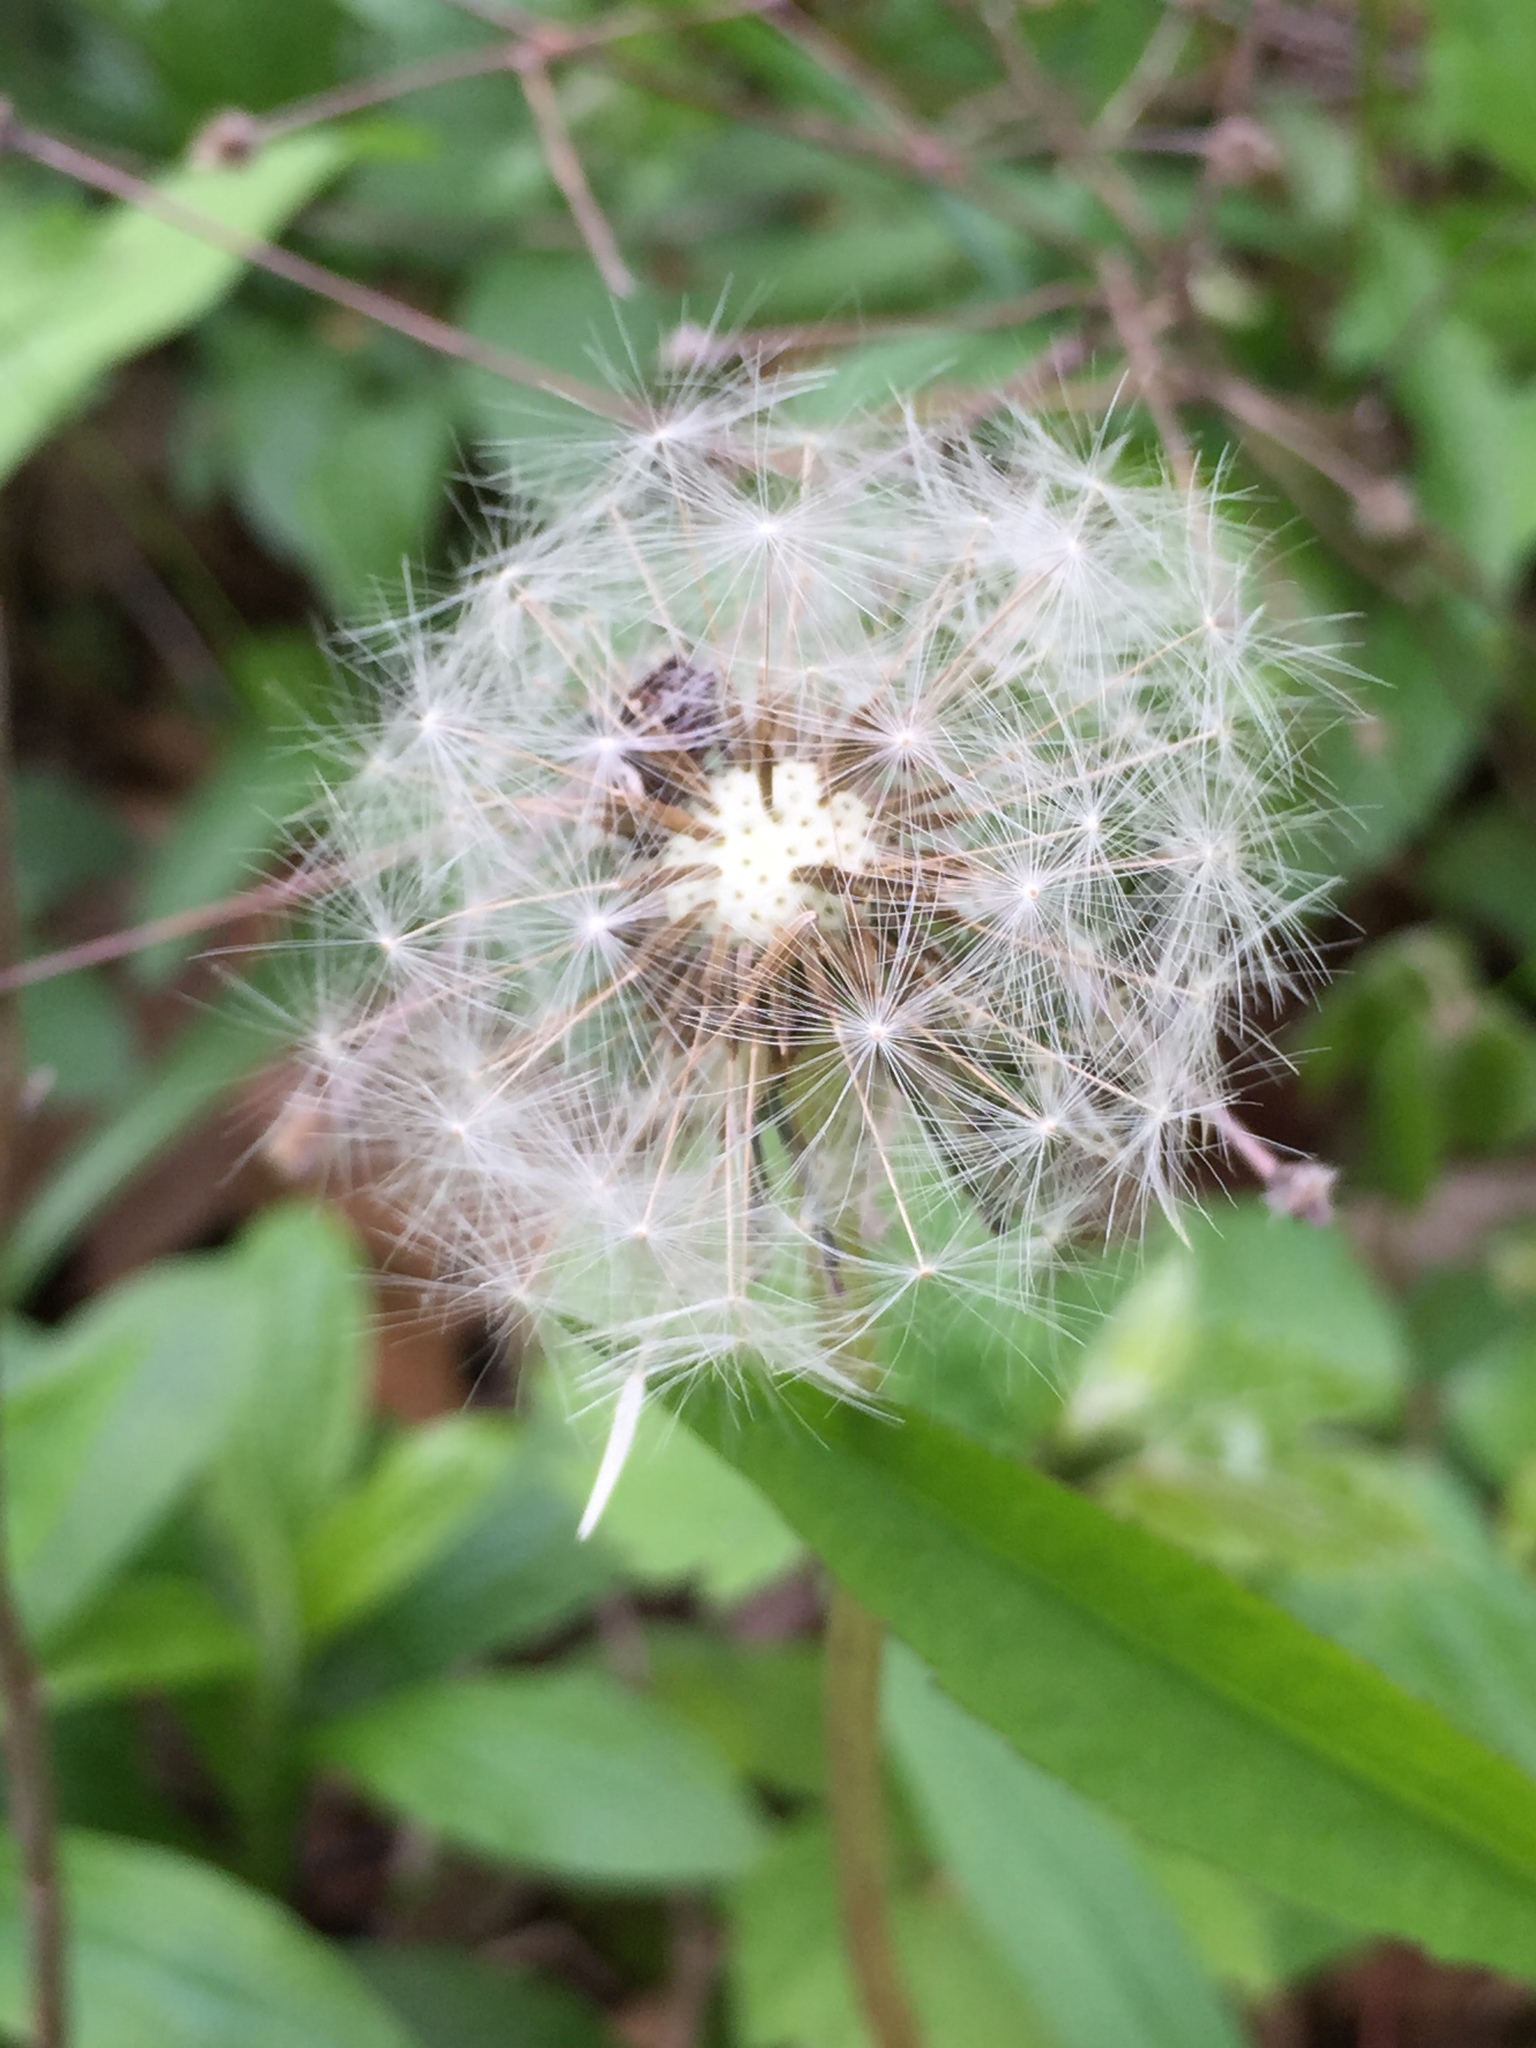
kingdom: Plantae
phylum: Tracheophyta
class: Magnoliopsida
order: Asterales
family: Asteraceae
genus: Taraxacum
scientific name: Taraxacum officinale
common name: Common dandelion
